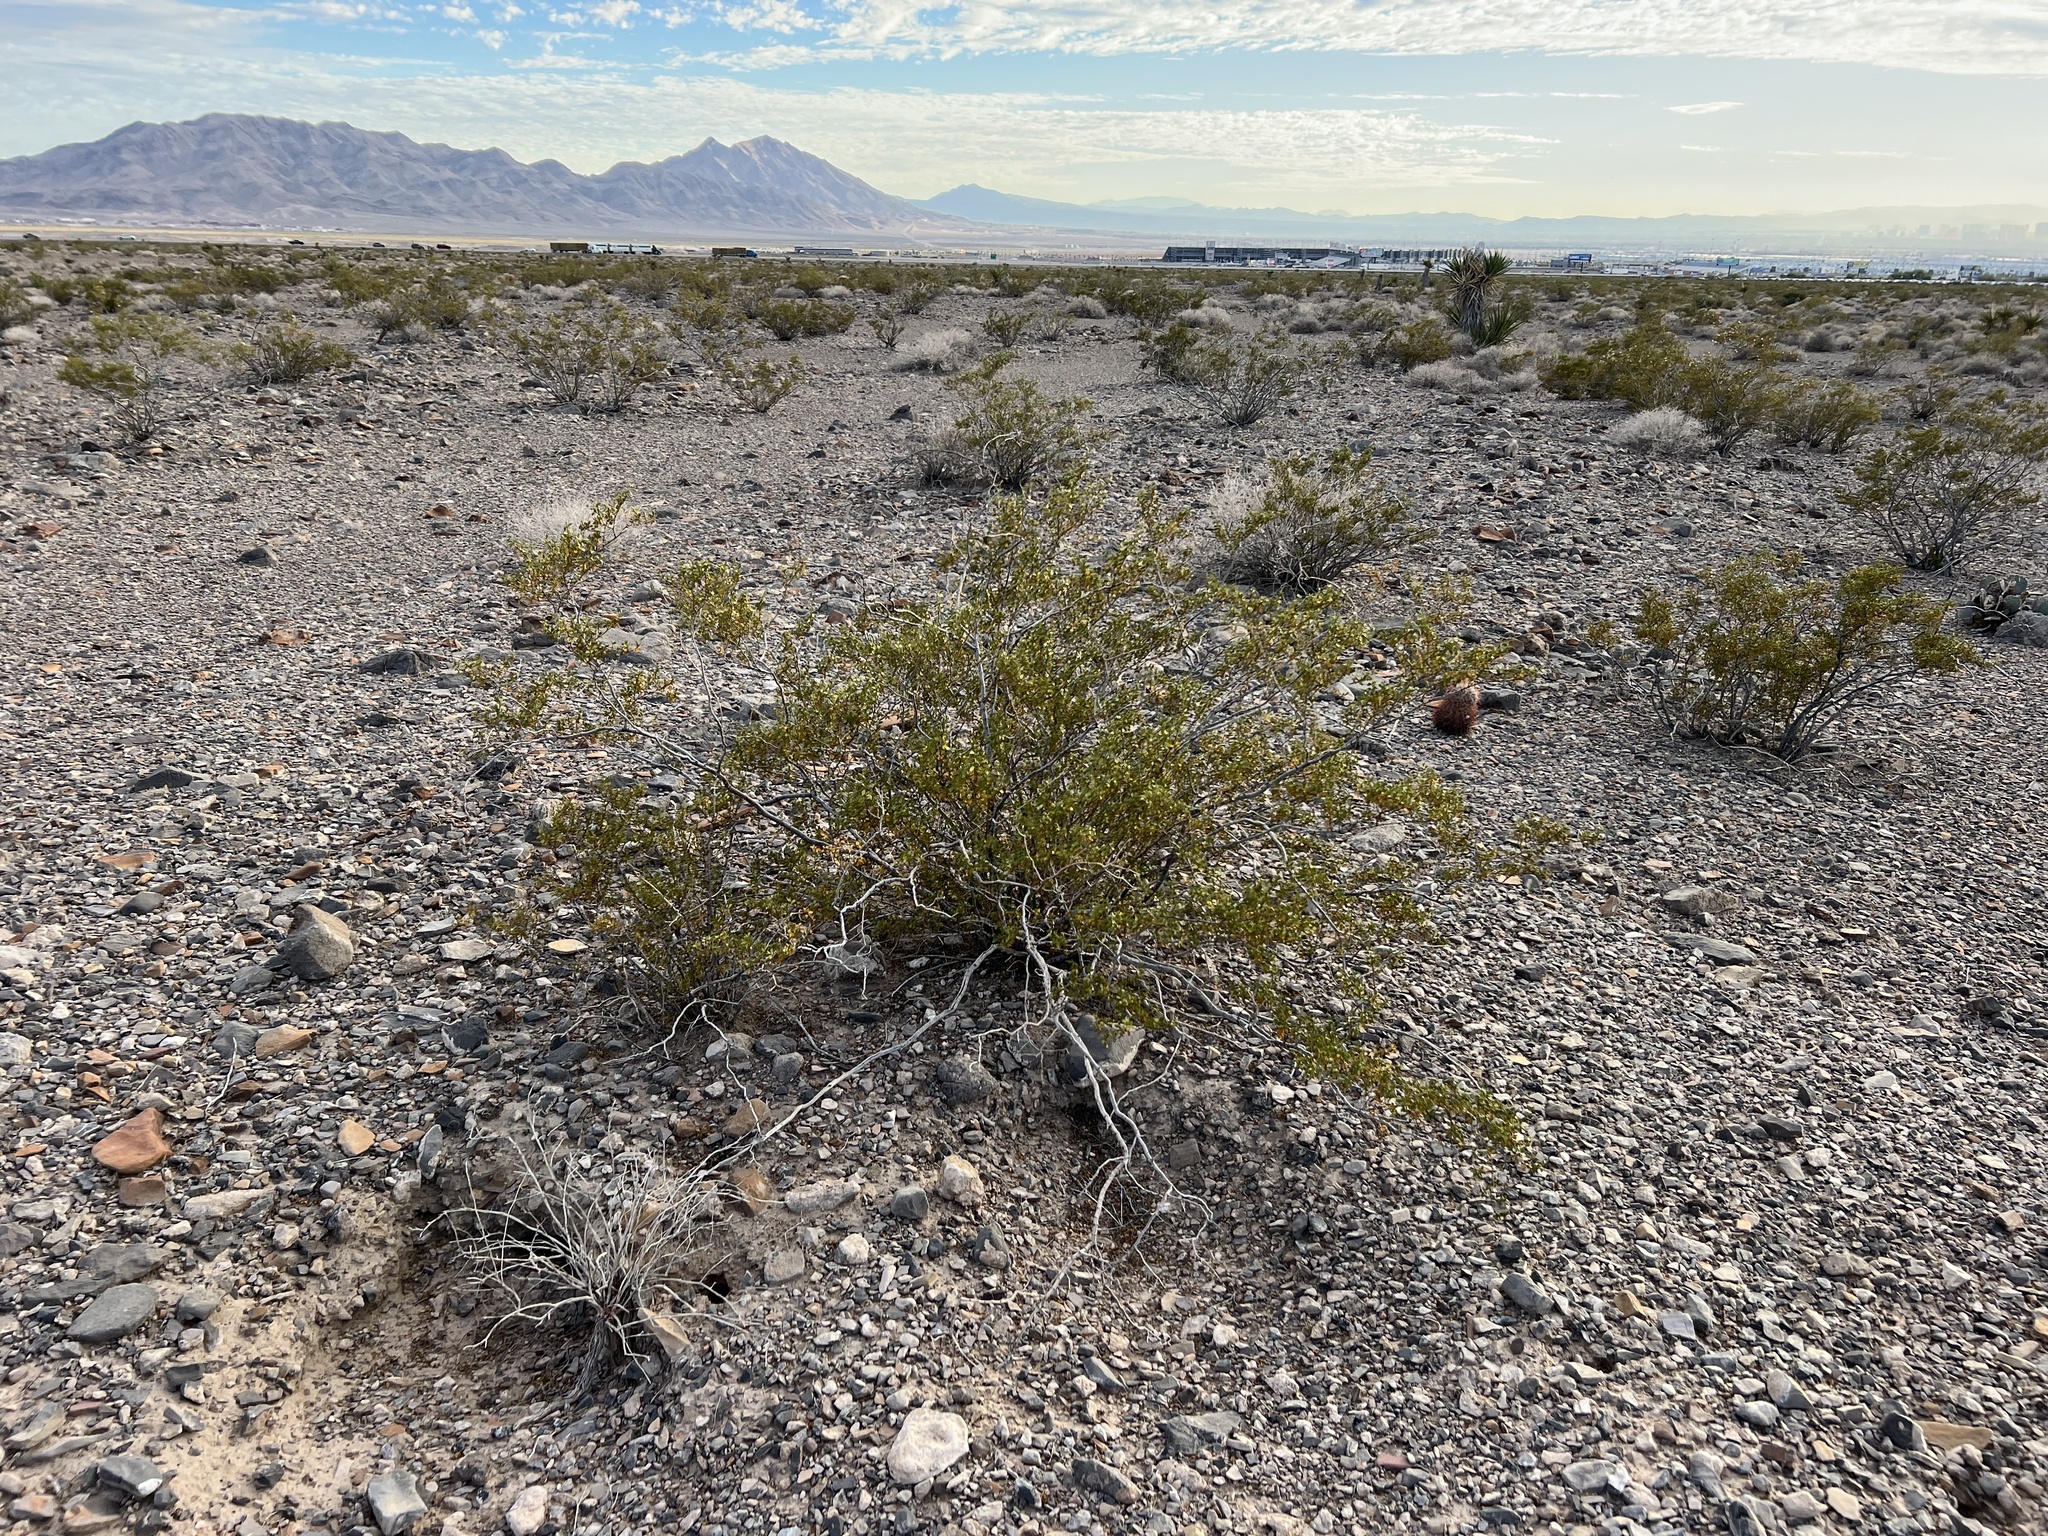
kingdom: Plantae
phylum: Tracheophyta
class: Magnoliopsida
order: Zygophyllales
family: Zygophyllaceae
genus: Larrea
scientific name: Larrea tridentata
